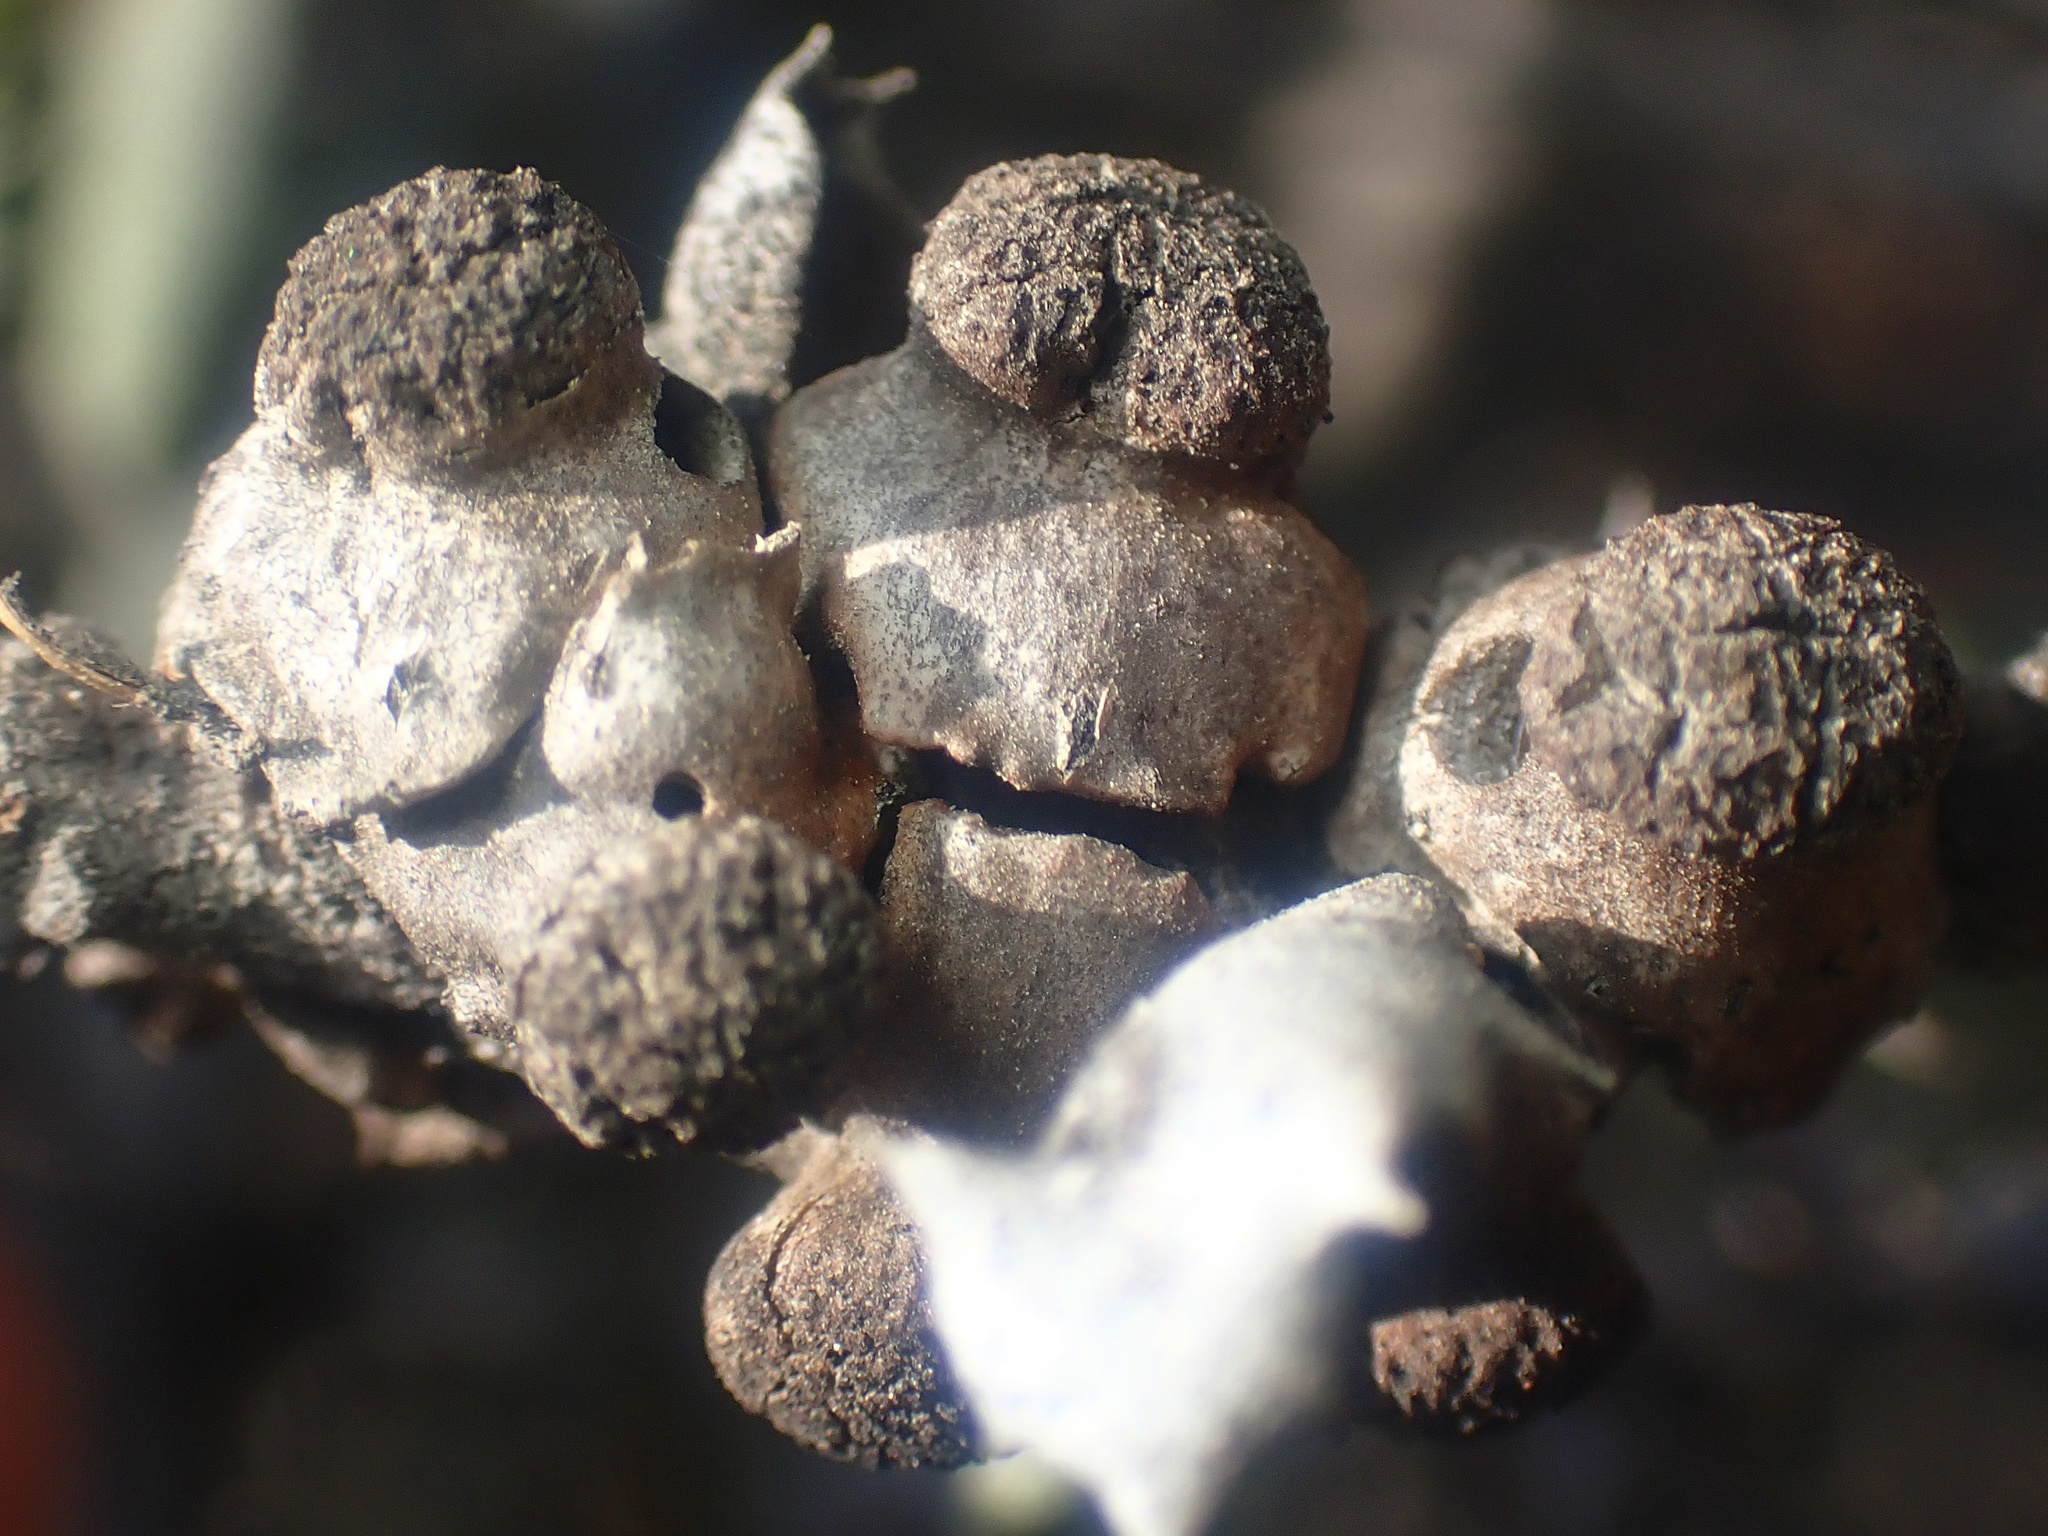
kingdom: Animalia
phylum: Arthropoda
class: Insecta
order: Hymenoptera
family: Cynipidae
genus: Disholcaspis
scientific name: Disholcaspis prehensa
